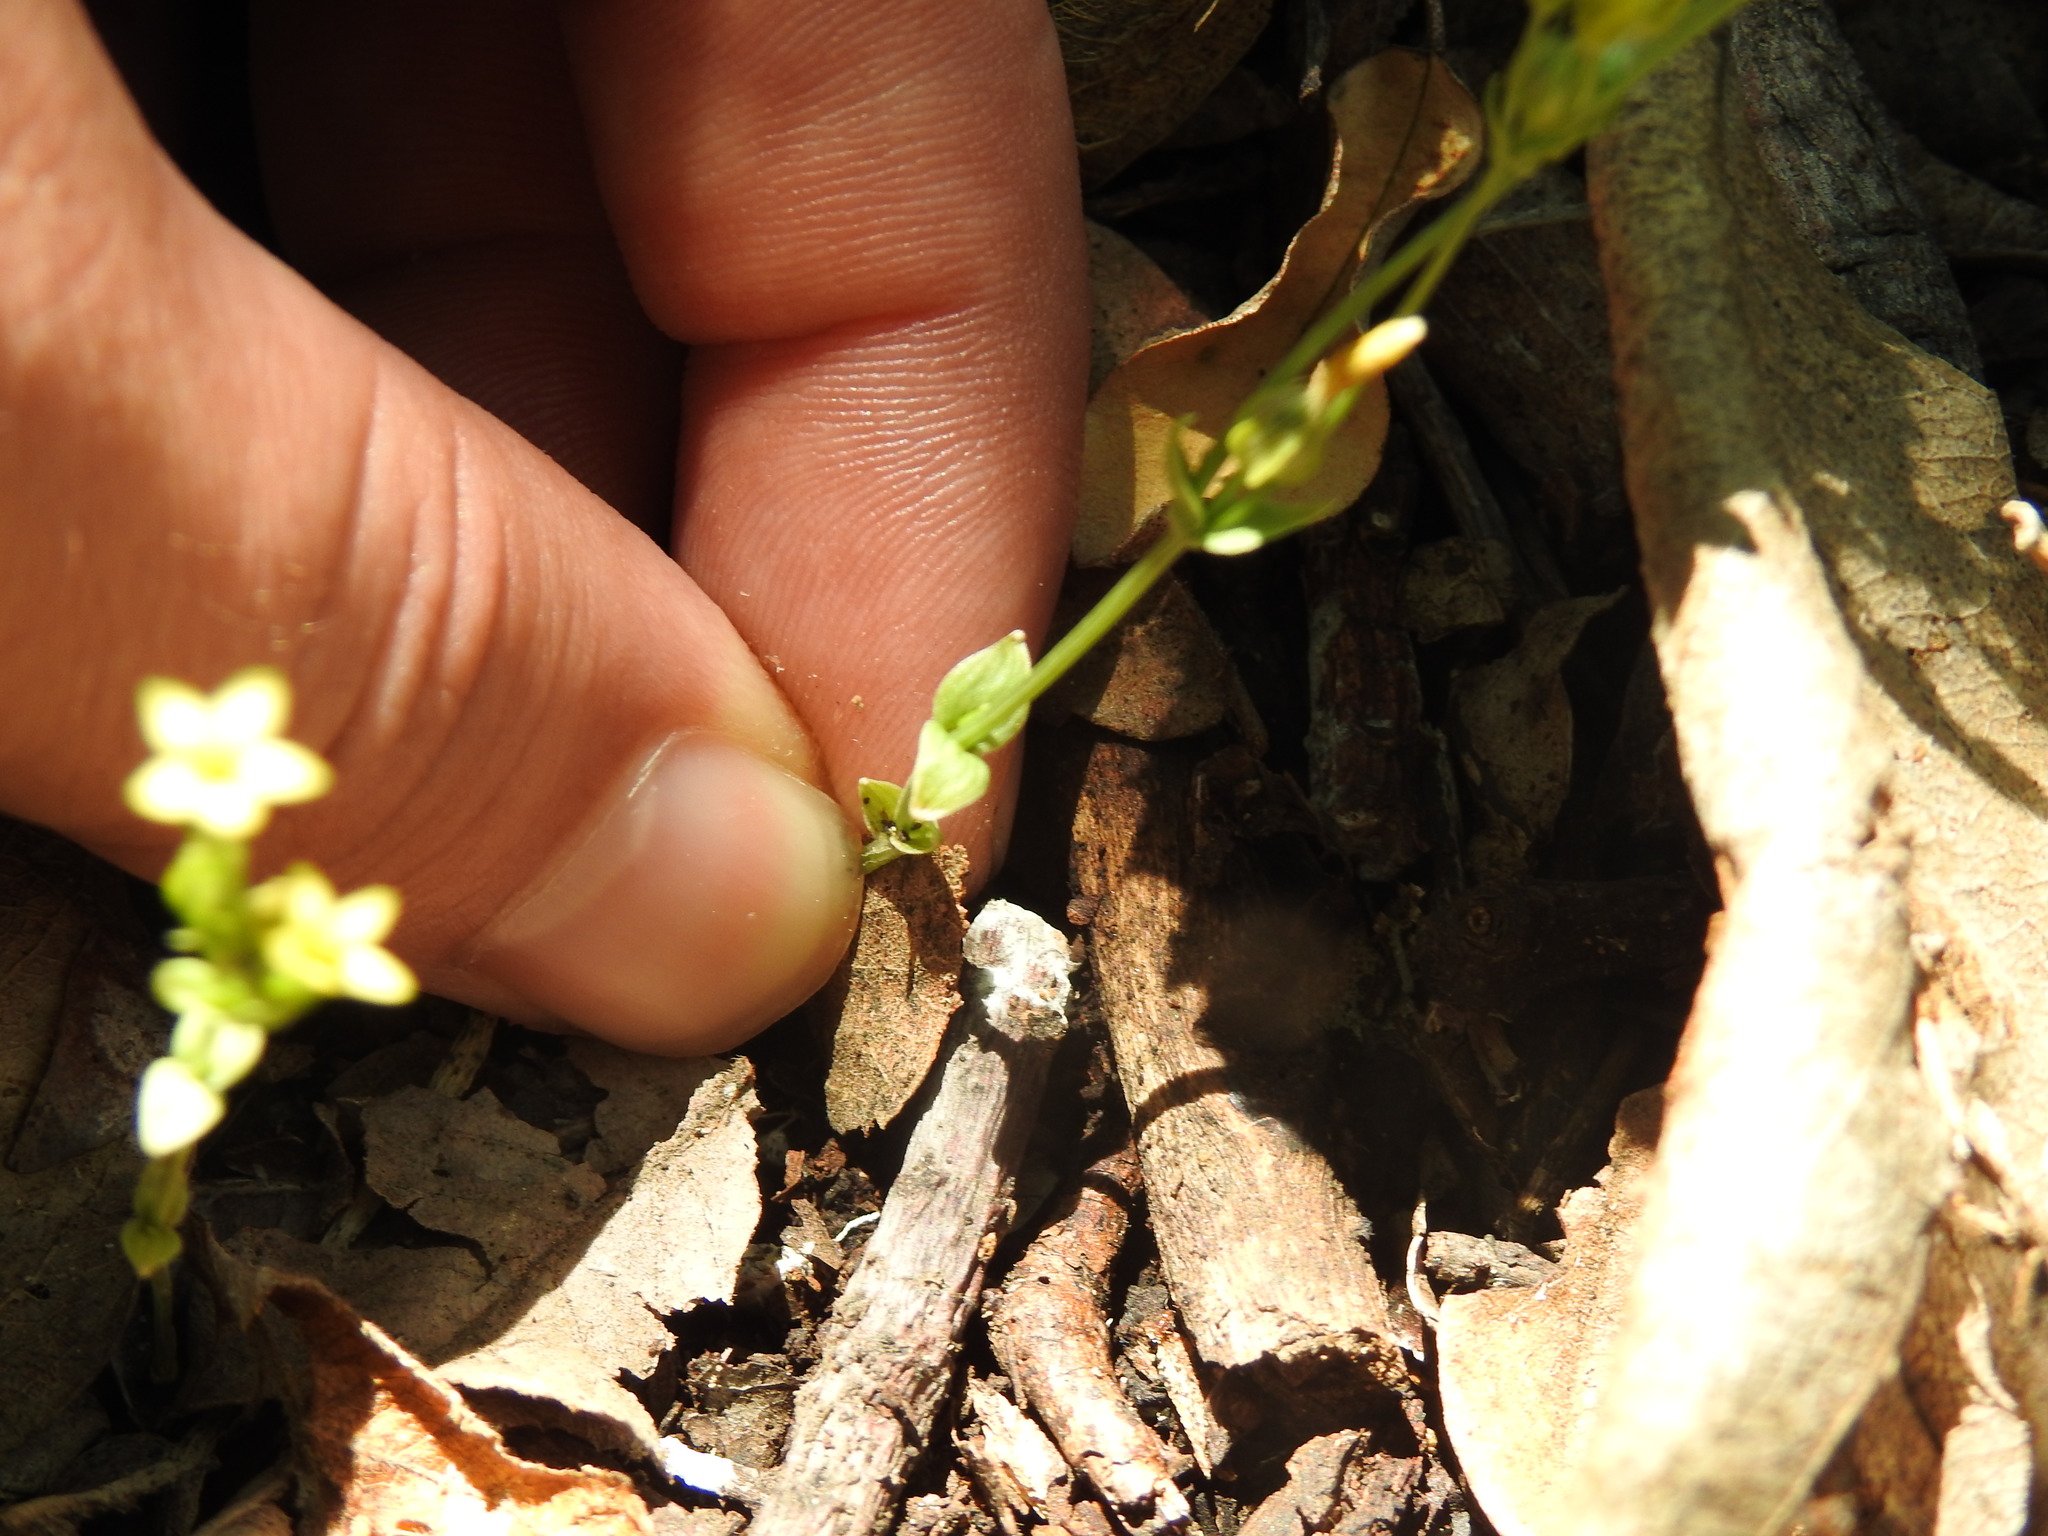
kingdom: Plantae
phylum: Tracheophyta
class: Magnoliopsida
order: Gentianales
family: Gentianaceae
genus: Sebaea
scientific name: Sebaea leiostyla
